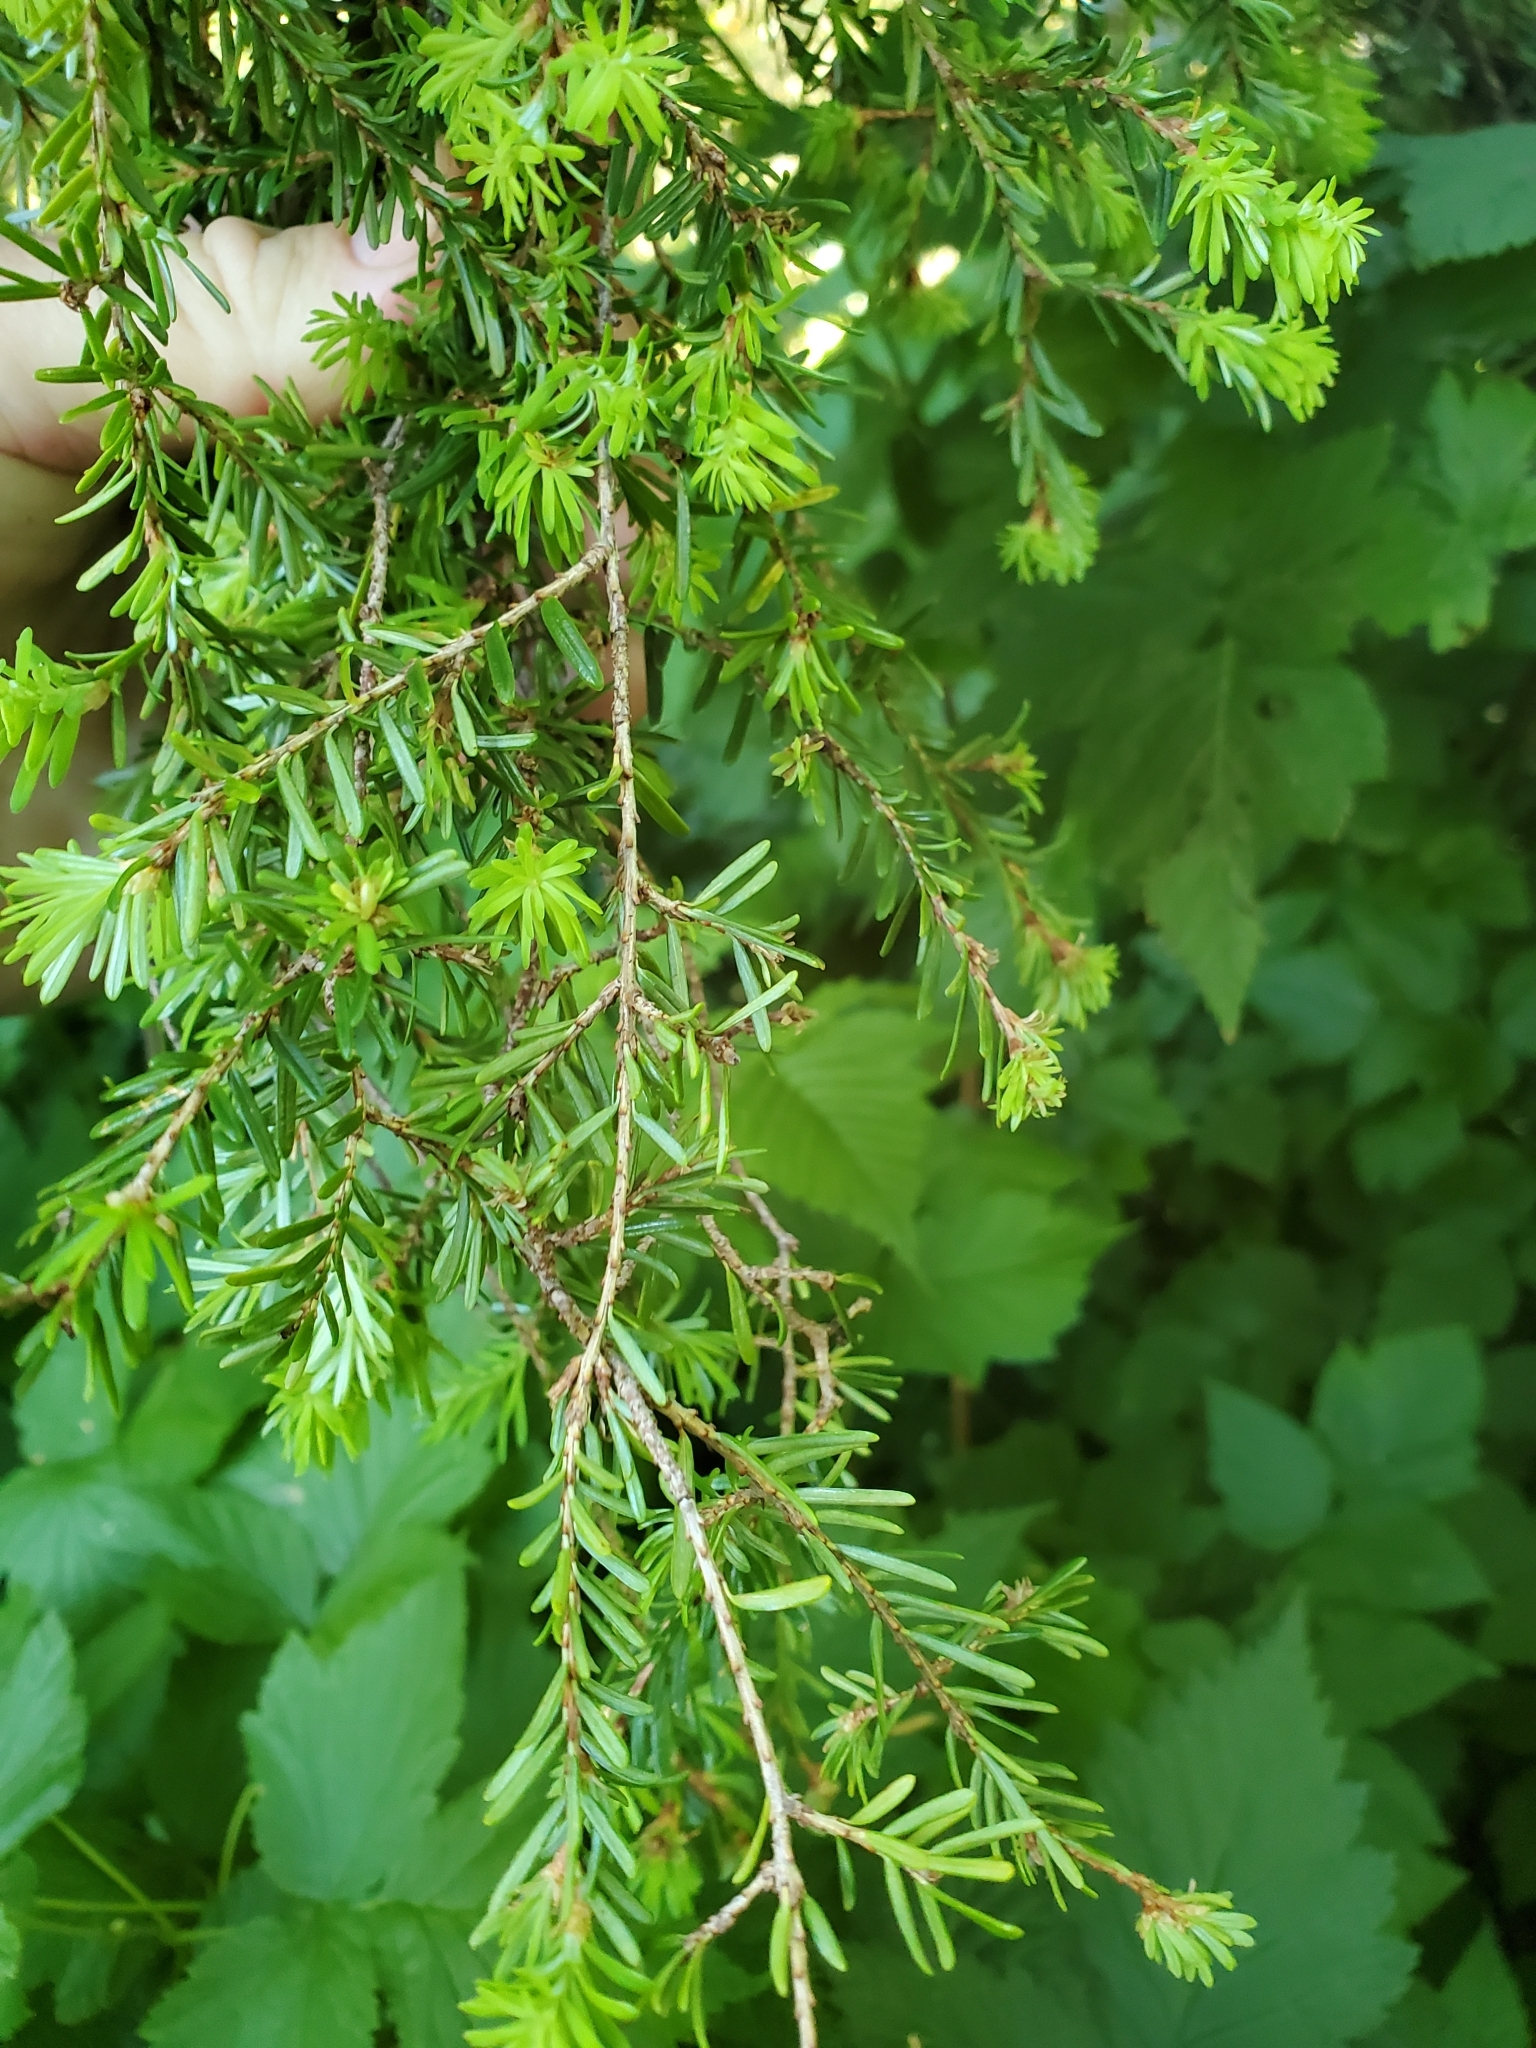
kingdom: Plantae
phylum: Tracheophyta
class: Pinopsida
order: Pinales
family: Pinaceae
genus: Tsuga
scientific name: Tsuga heterophylla
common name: Western hemlock
